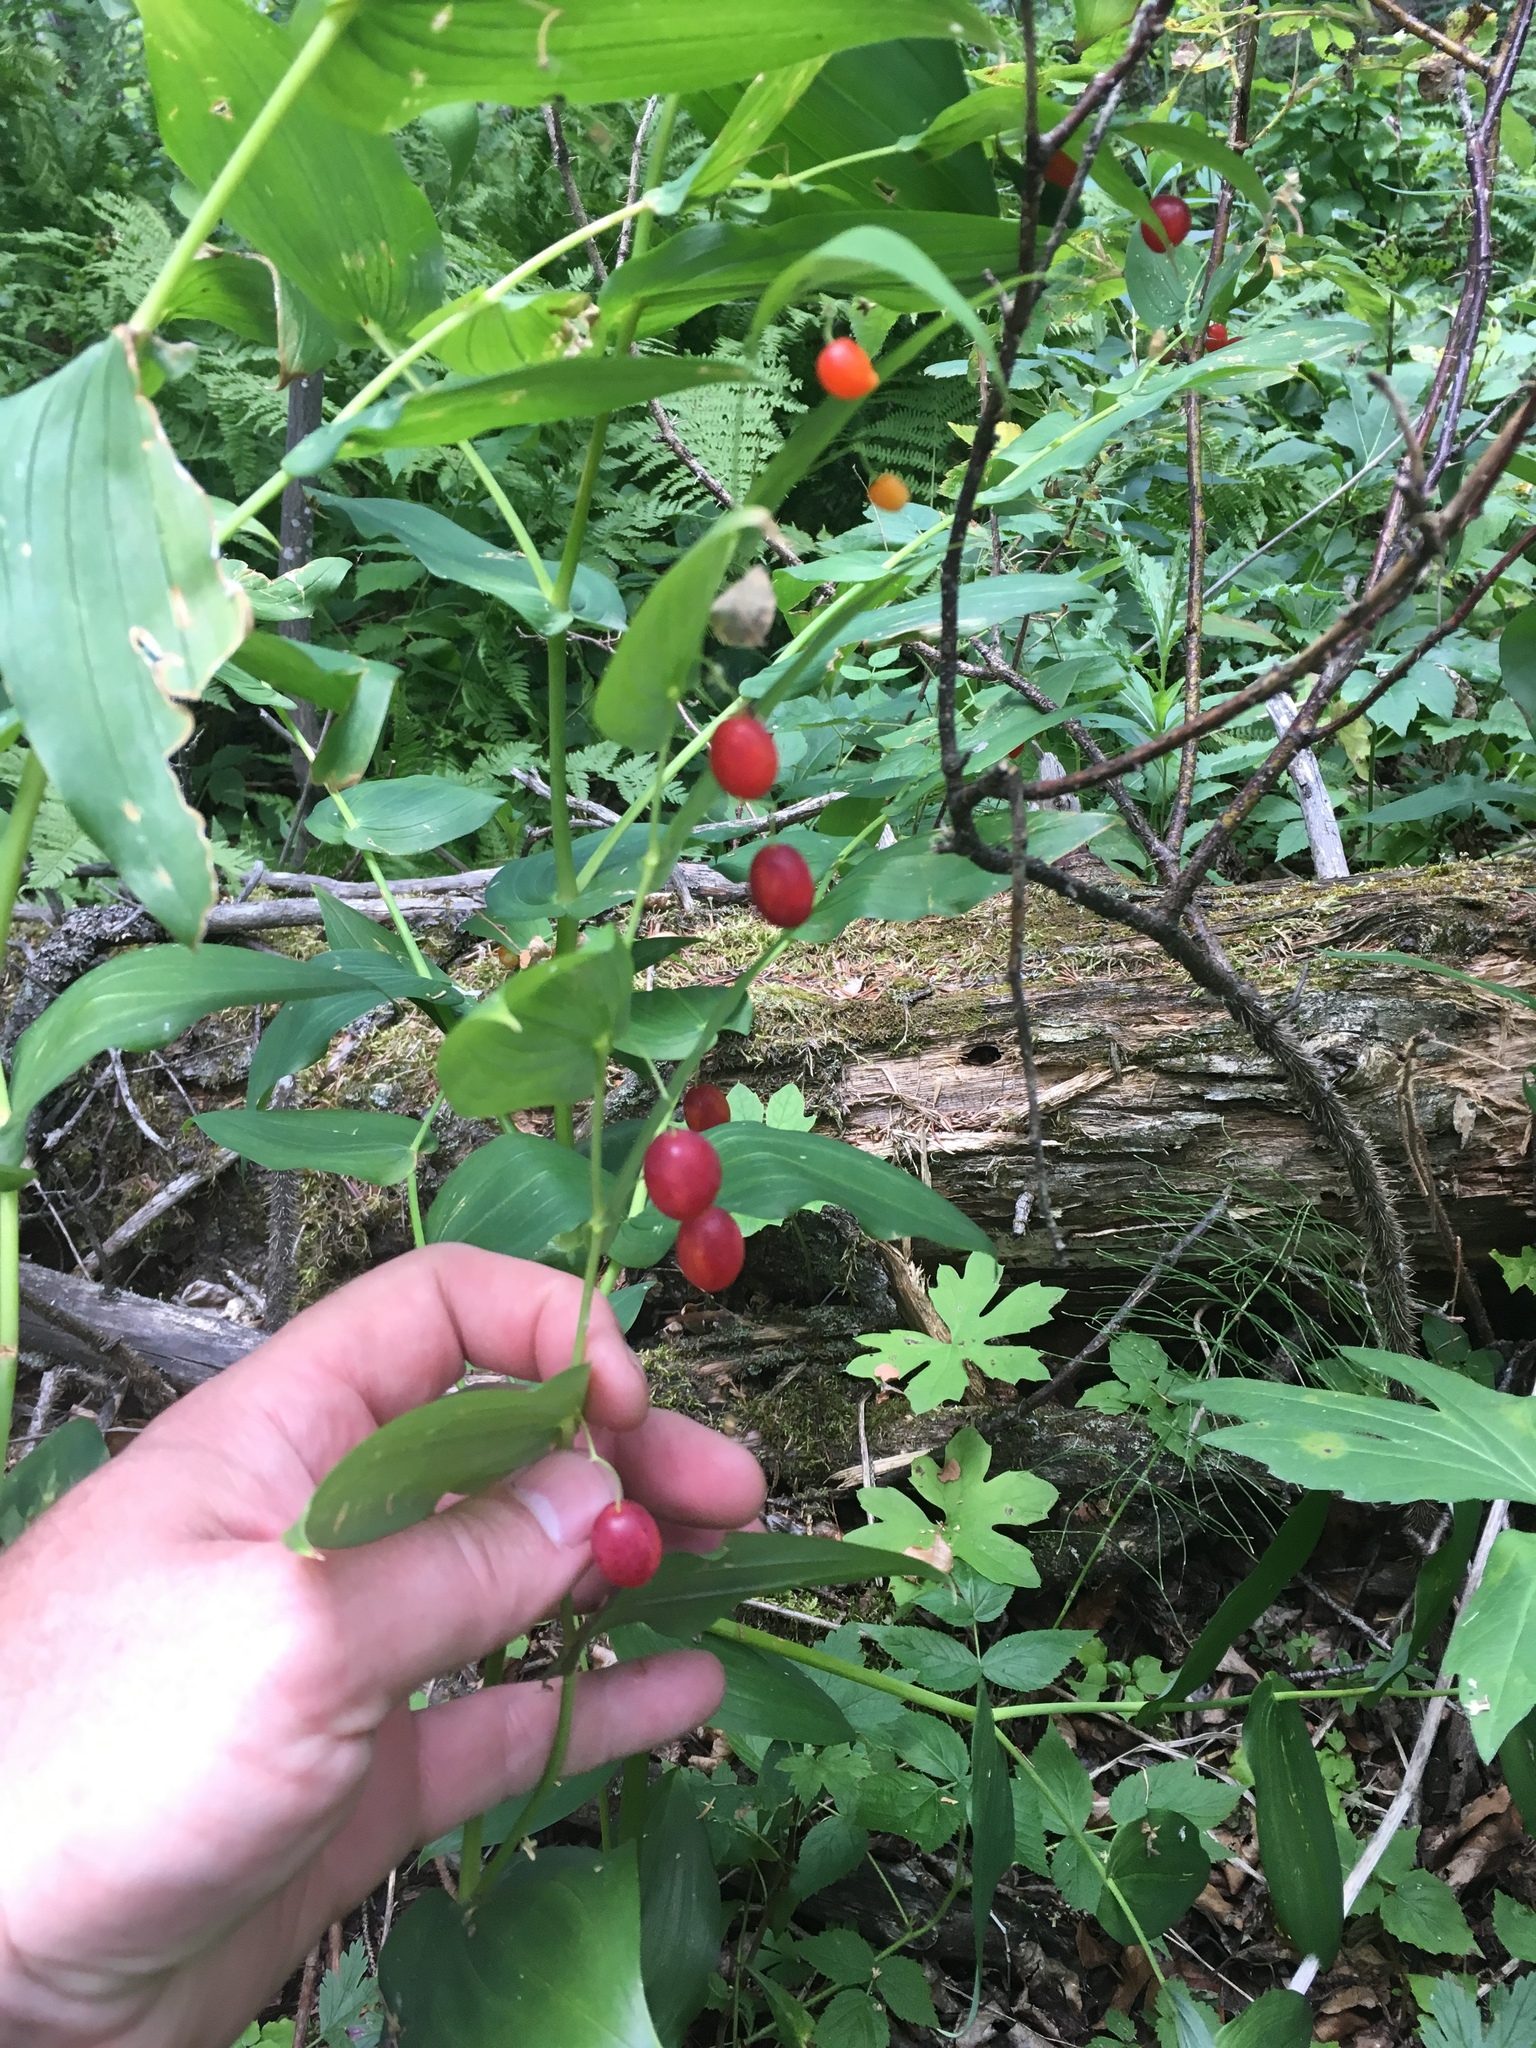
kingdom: Plantae
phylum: Tracheophyta
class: Liliopsida
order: Liliales
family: Liliaceae
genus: Streptopus
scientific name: Streptopus amplexifolius
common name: Clasp twisted stalk
